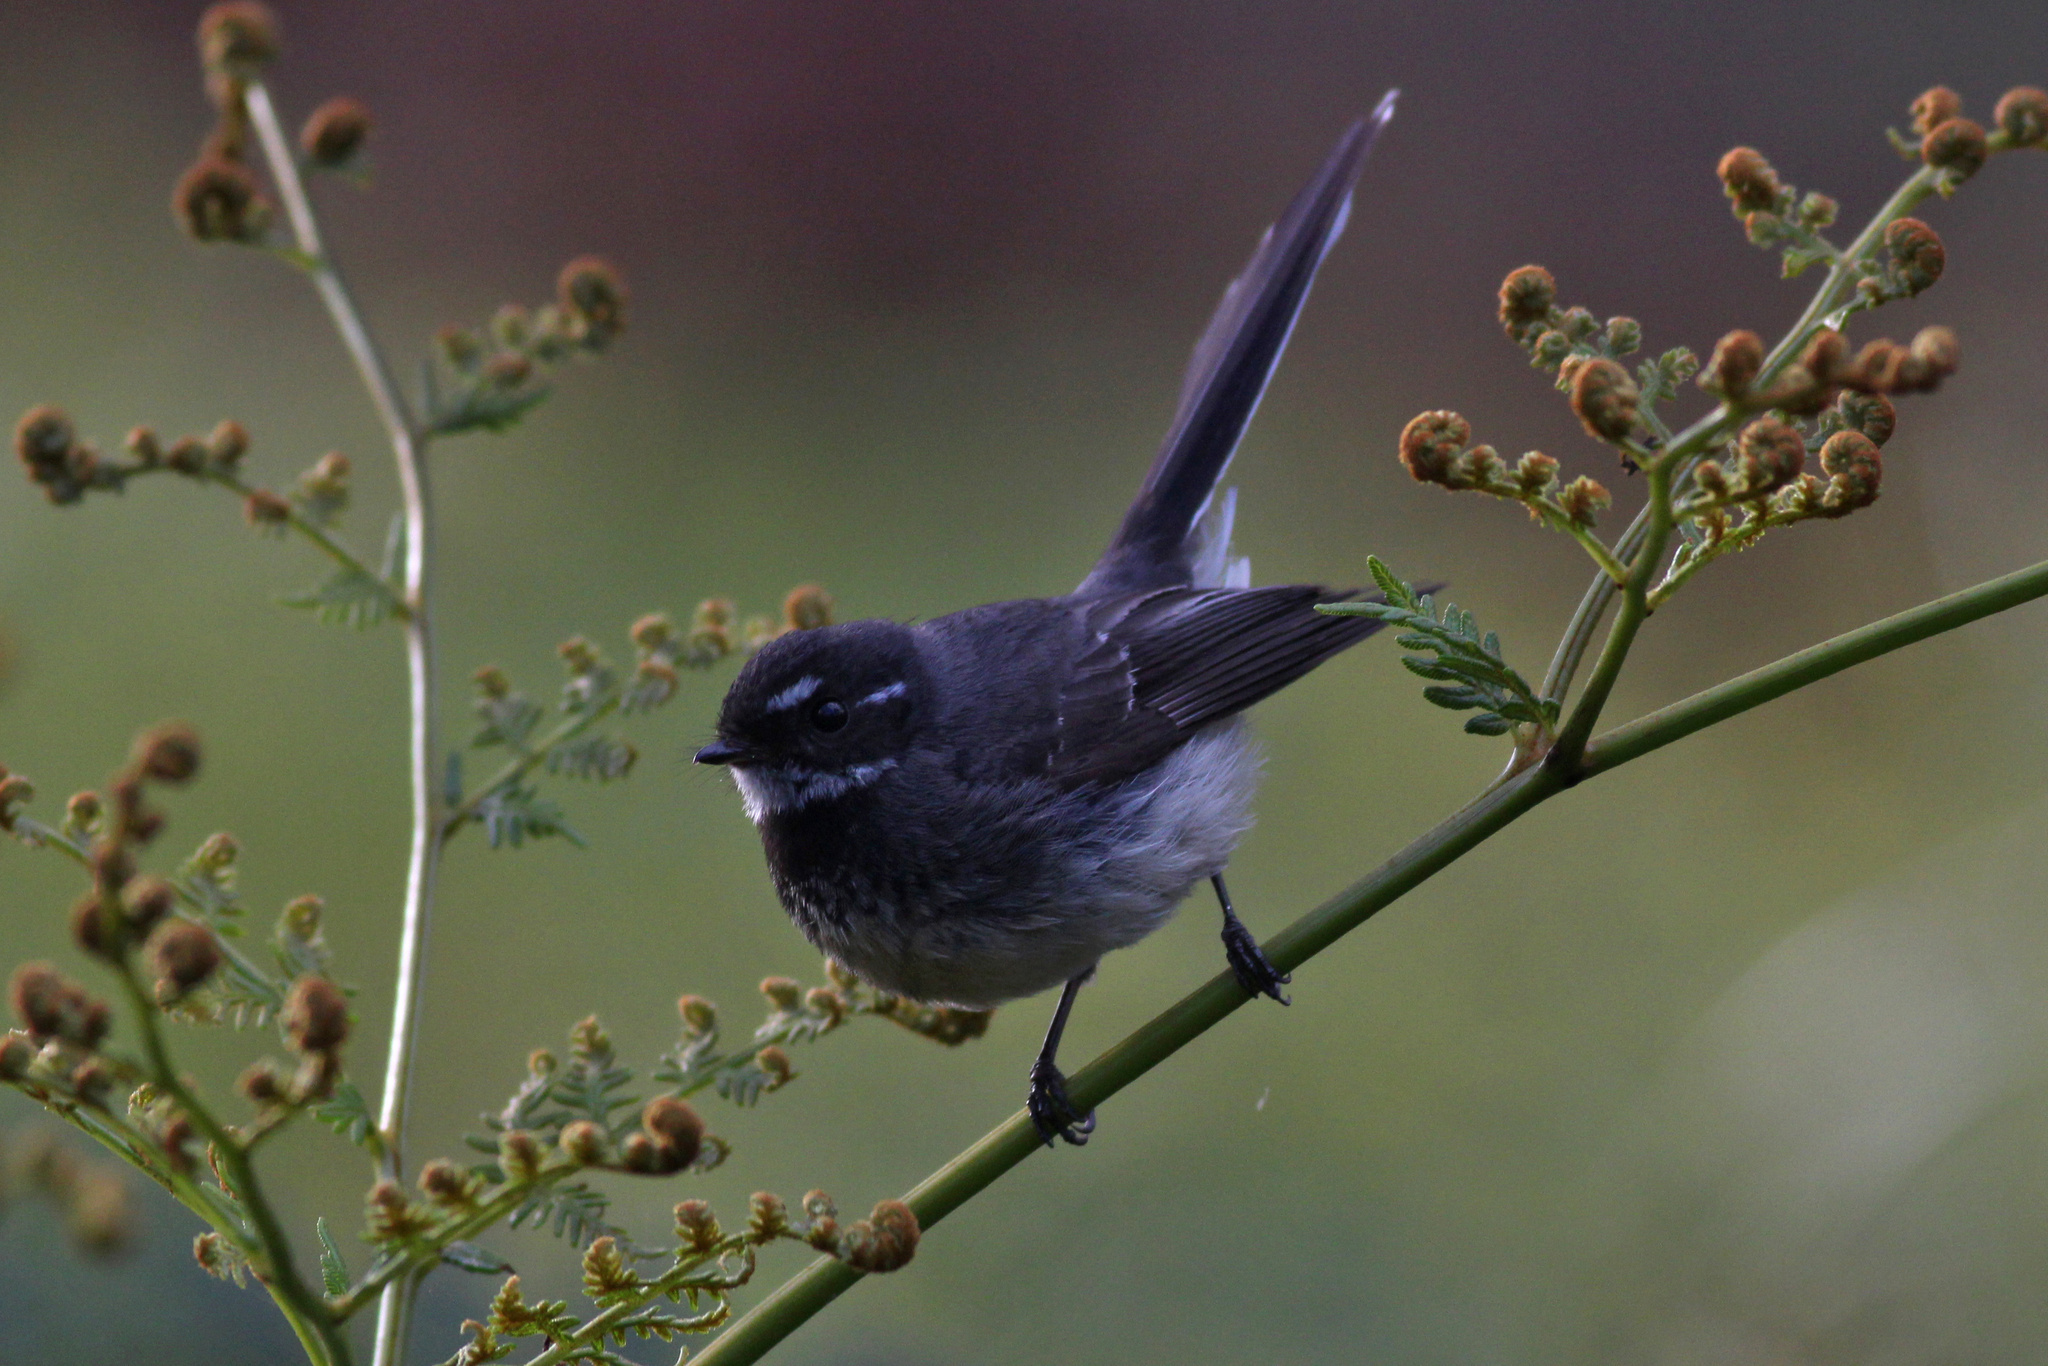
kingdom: Animalia
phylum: Chordata
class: Aves
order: Passeriformes
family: Rhipiduridae
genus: Rhipidura
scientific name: Rhipidura albiscapa
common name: Grey fantail
